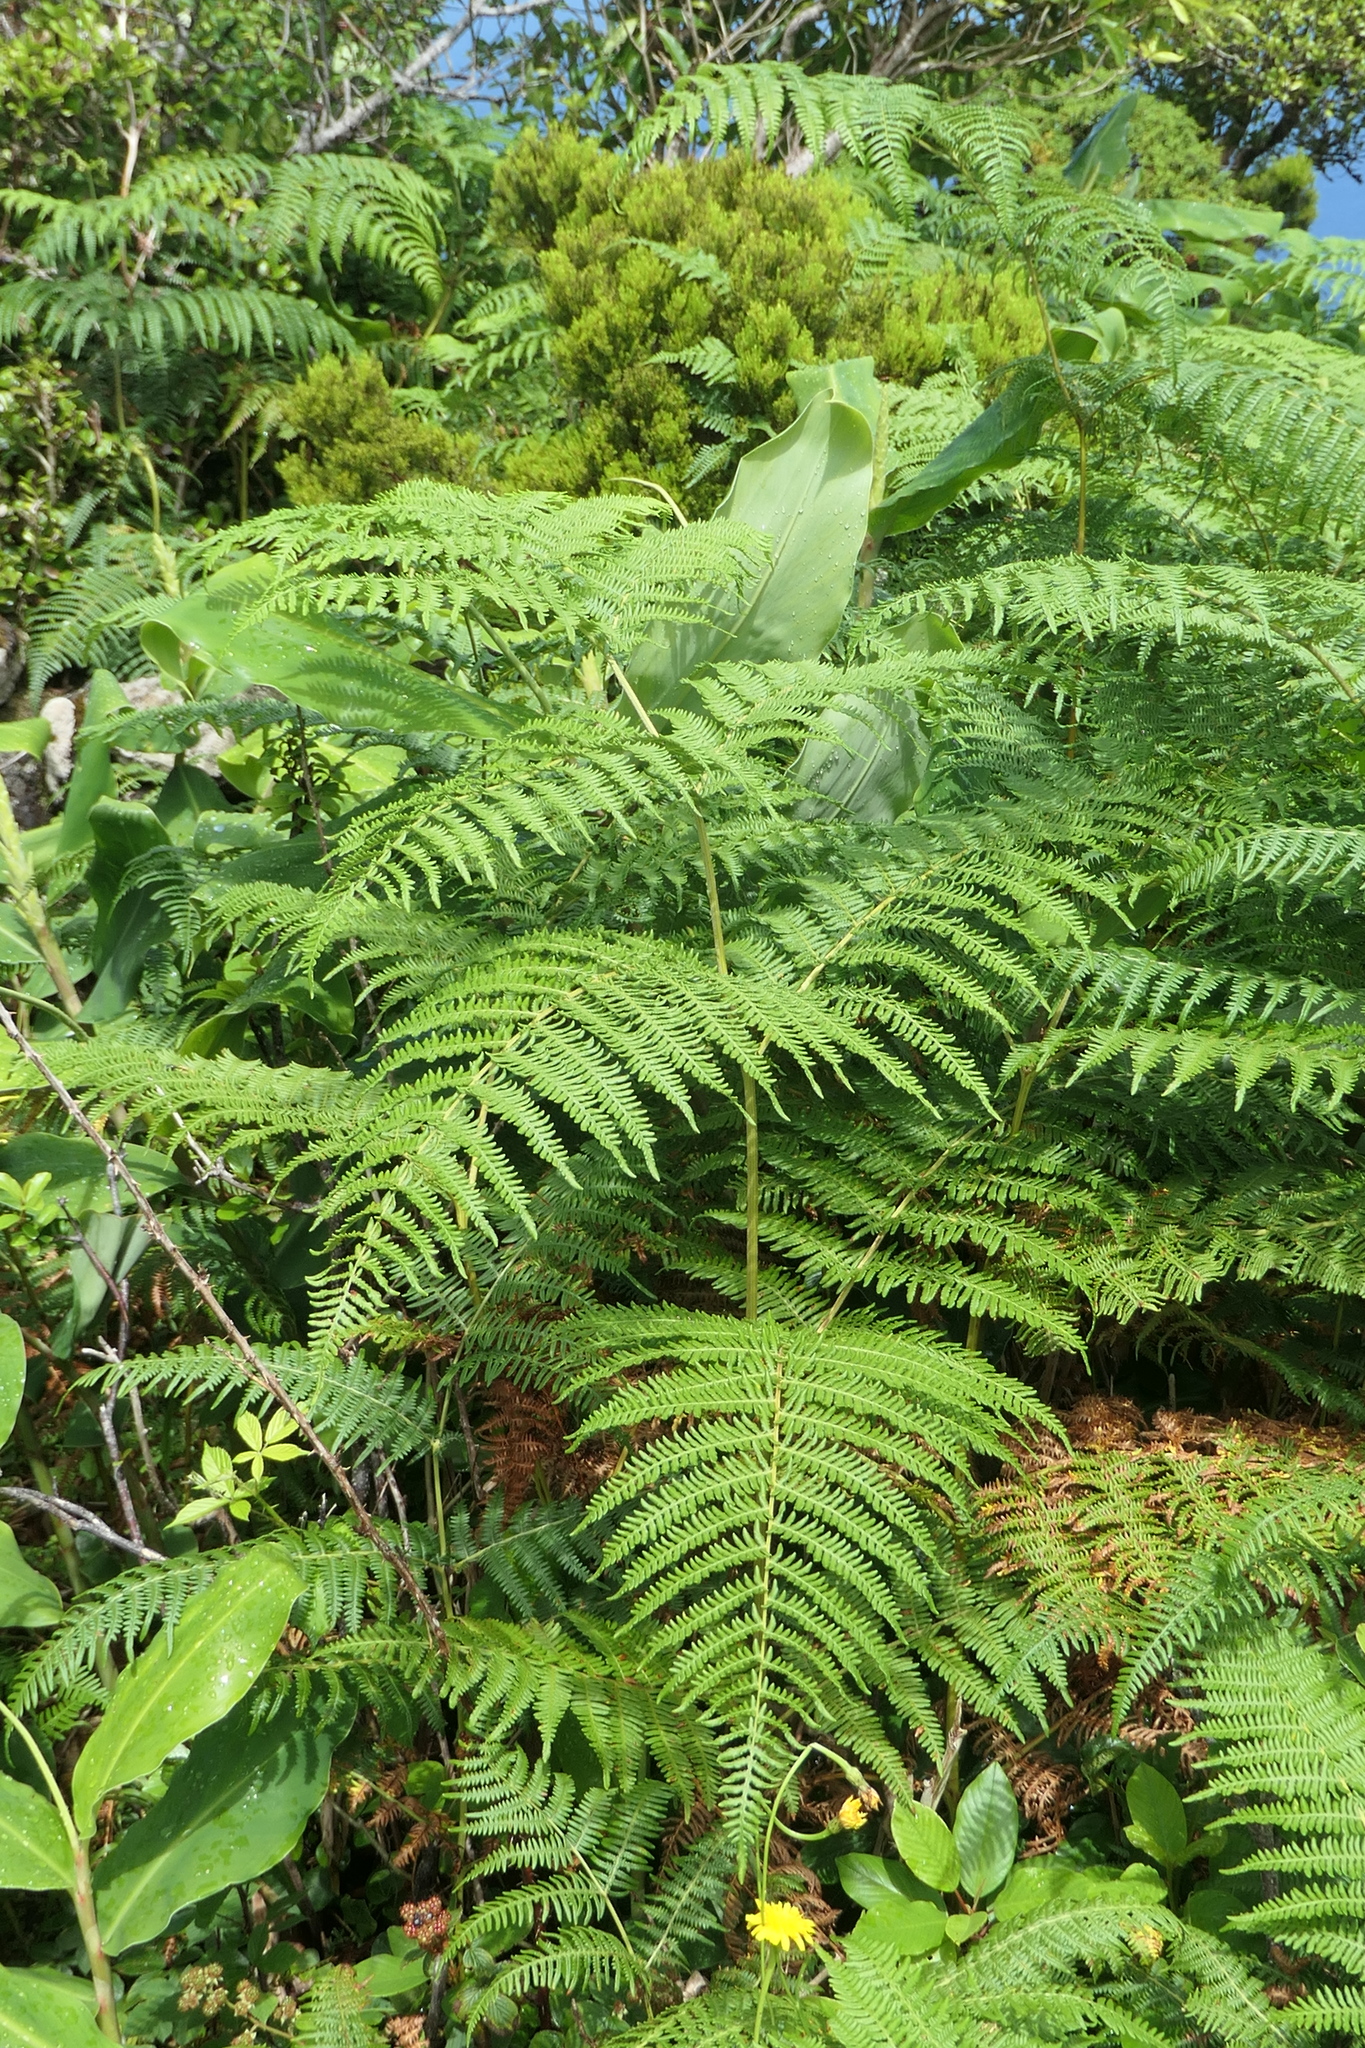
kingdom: Plantae
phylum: Tracheophyta
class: Polypodiopsida
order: Polypodiales
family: Dennstaedtiaceae
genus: Pteridium
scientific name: Pteridium aquilinum
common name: Bracken
